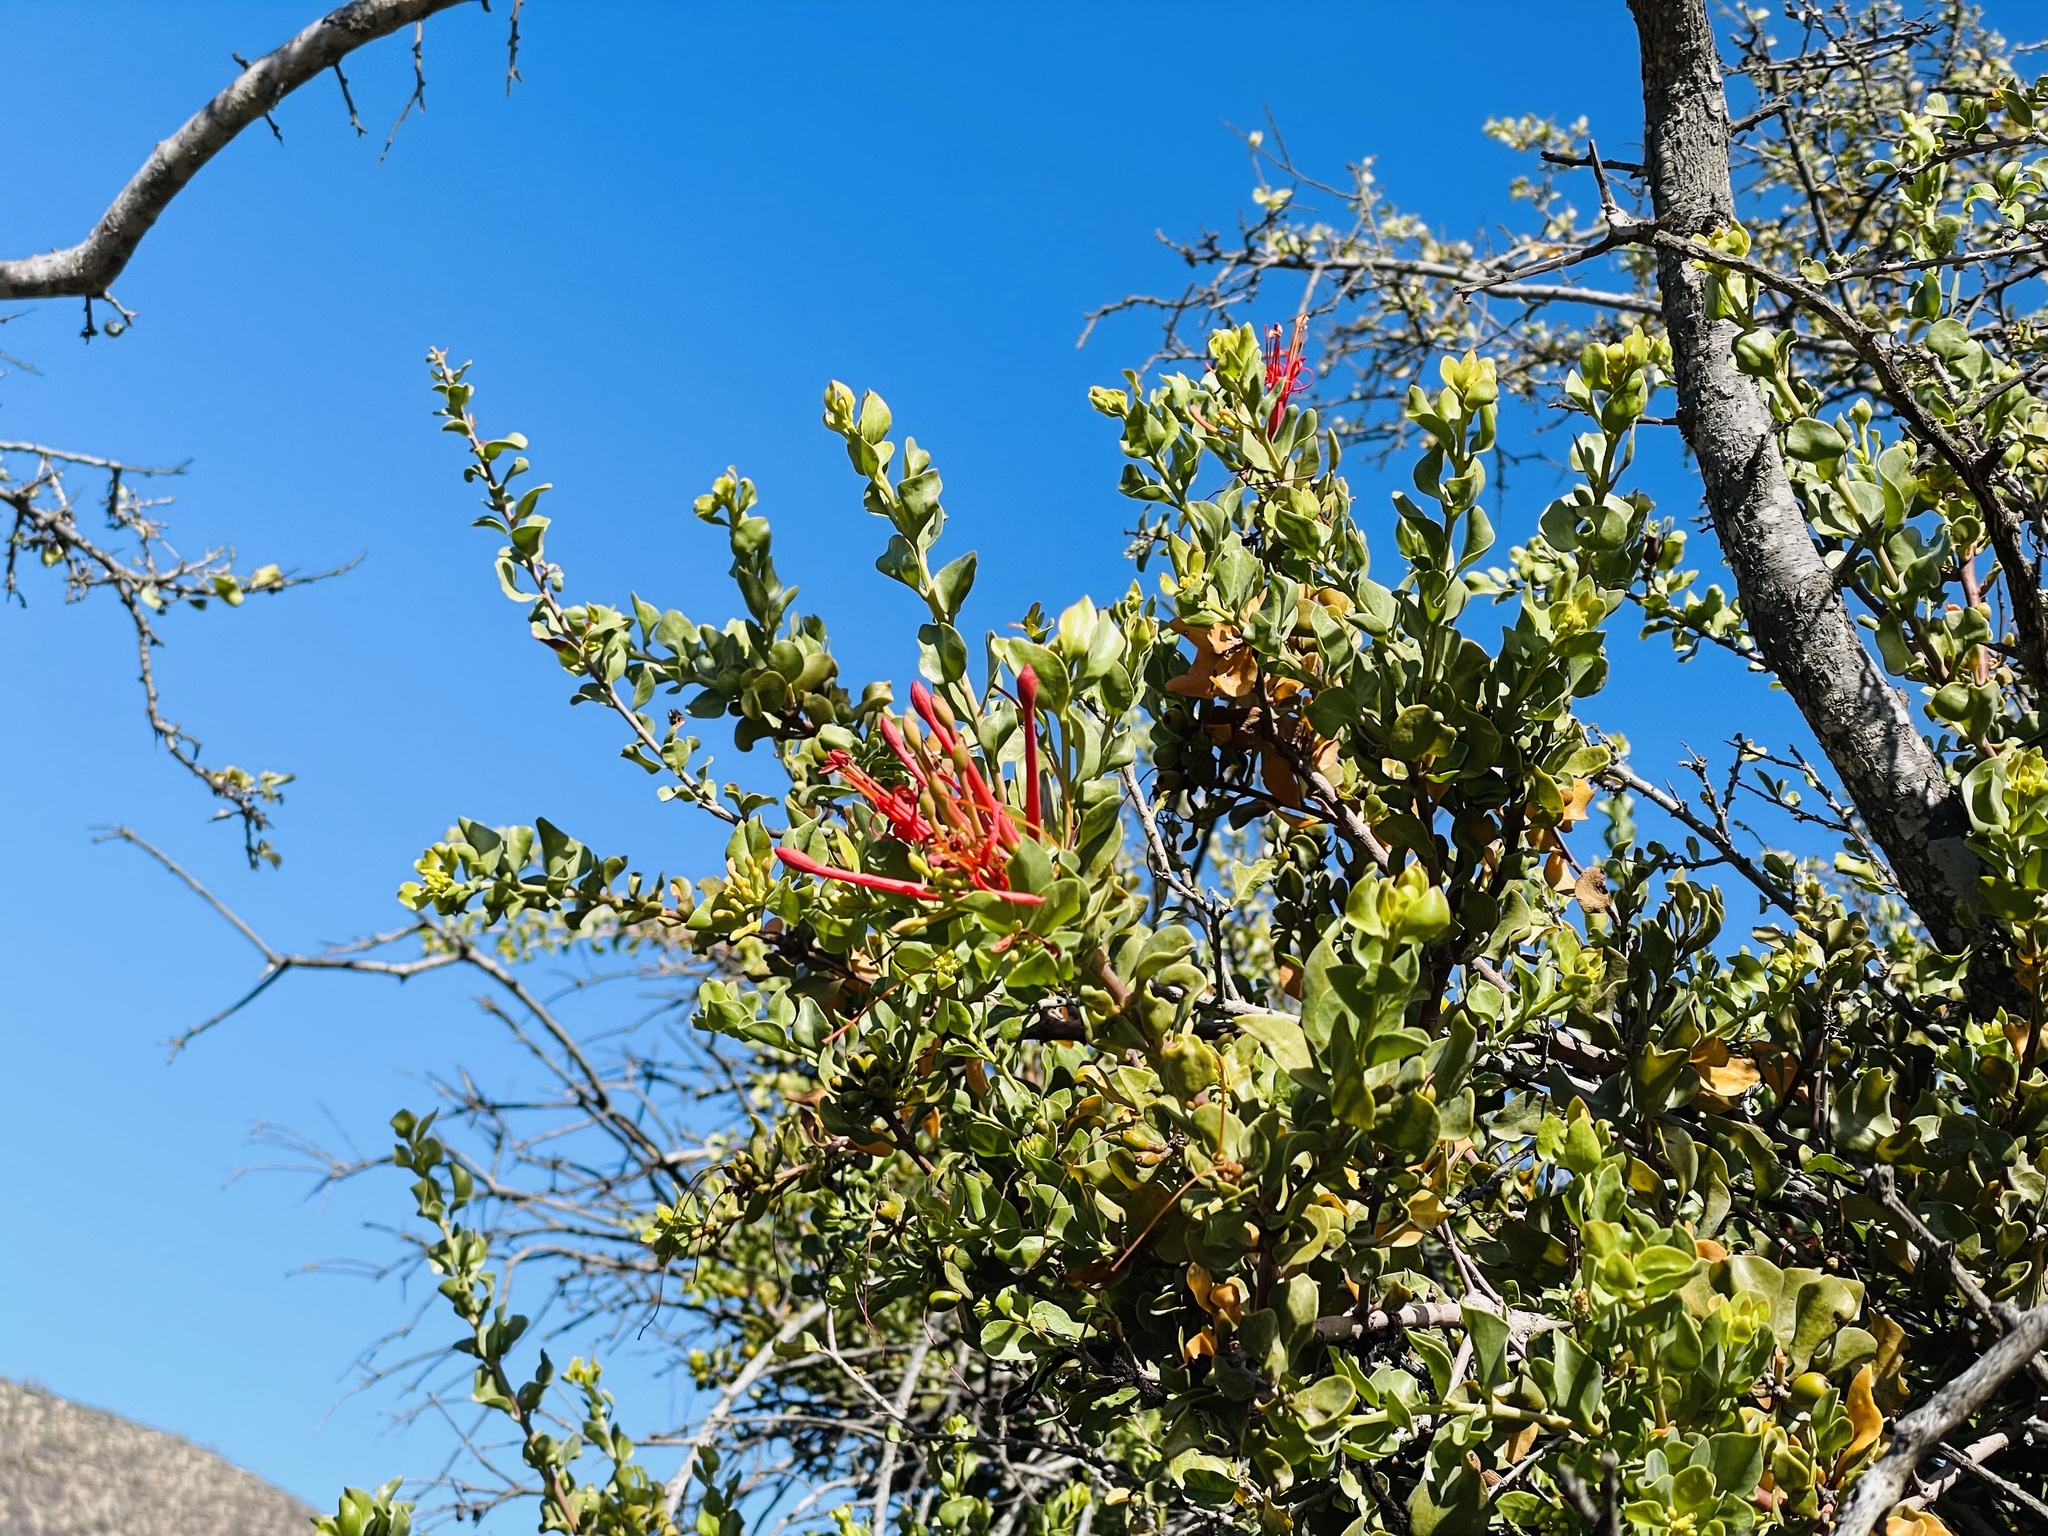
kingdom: Plantae
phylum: Tracheophyta
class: Magnoliopsida
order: Santalales
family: Loranthaceae
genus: Tristerix
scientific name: Tristerix verticillatus
